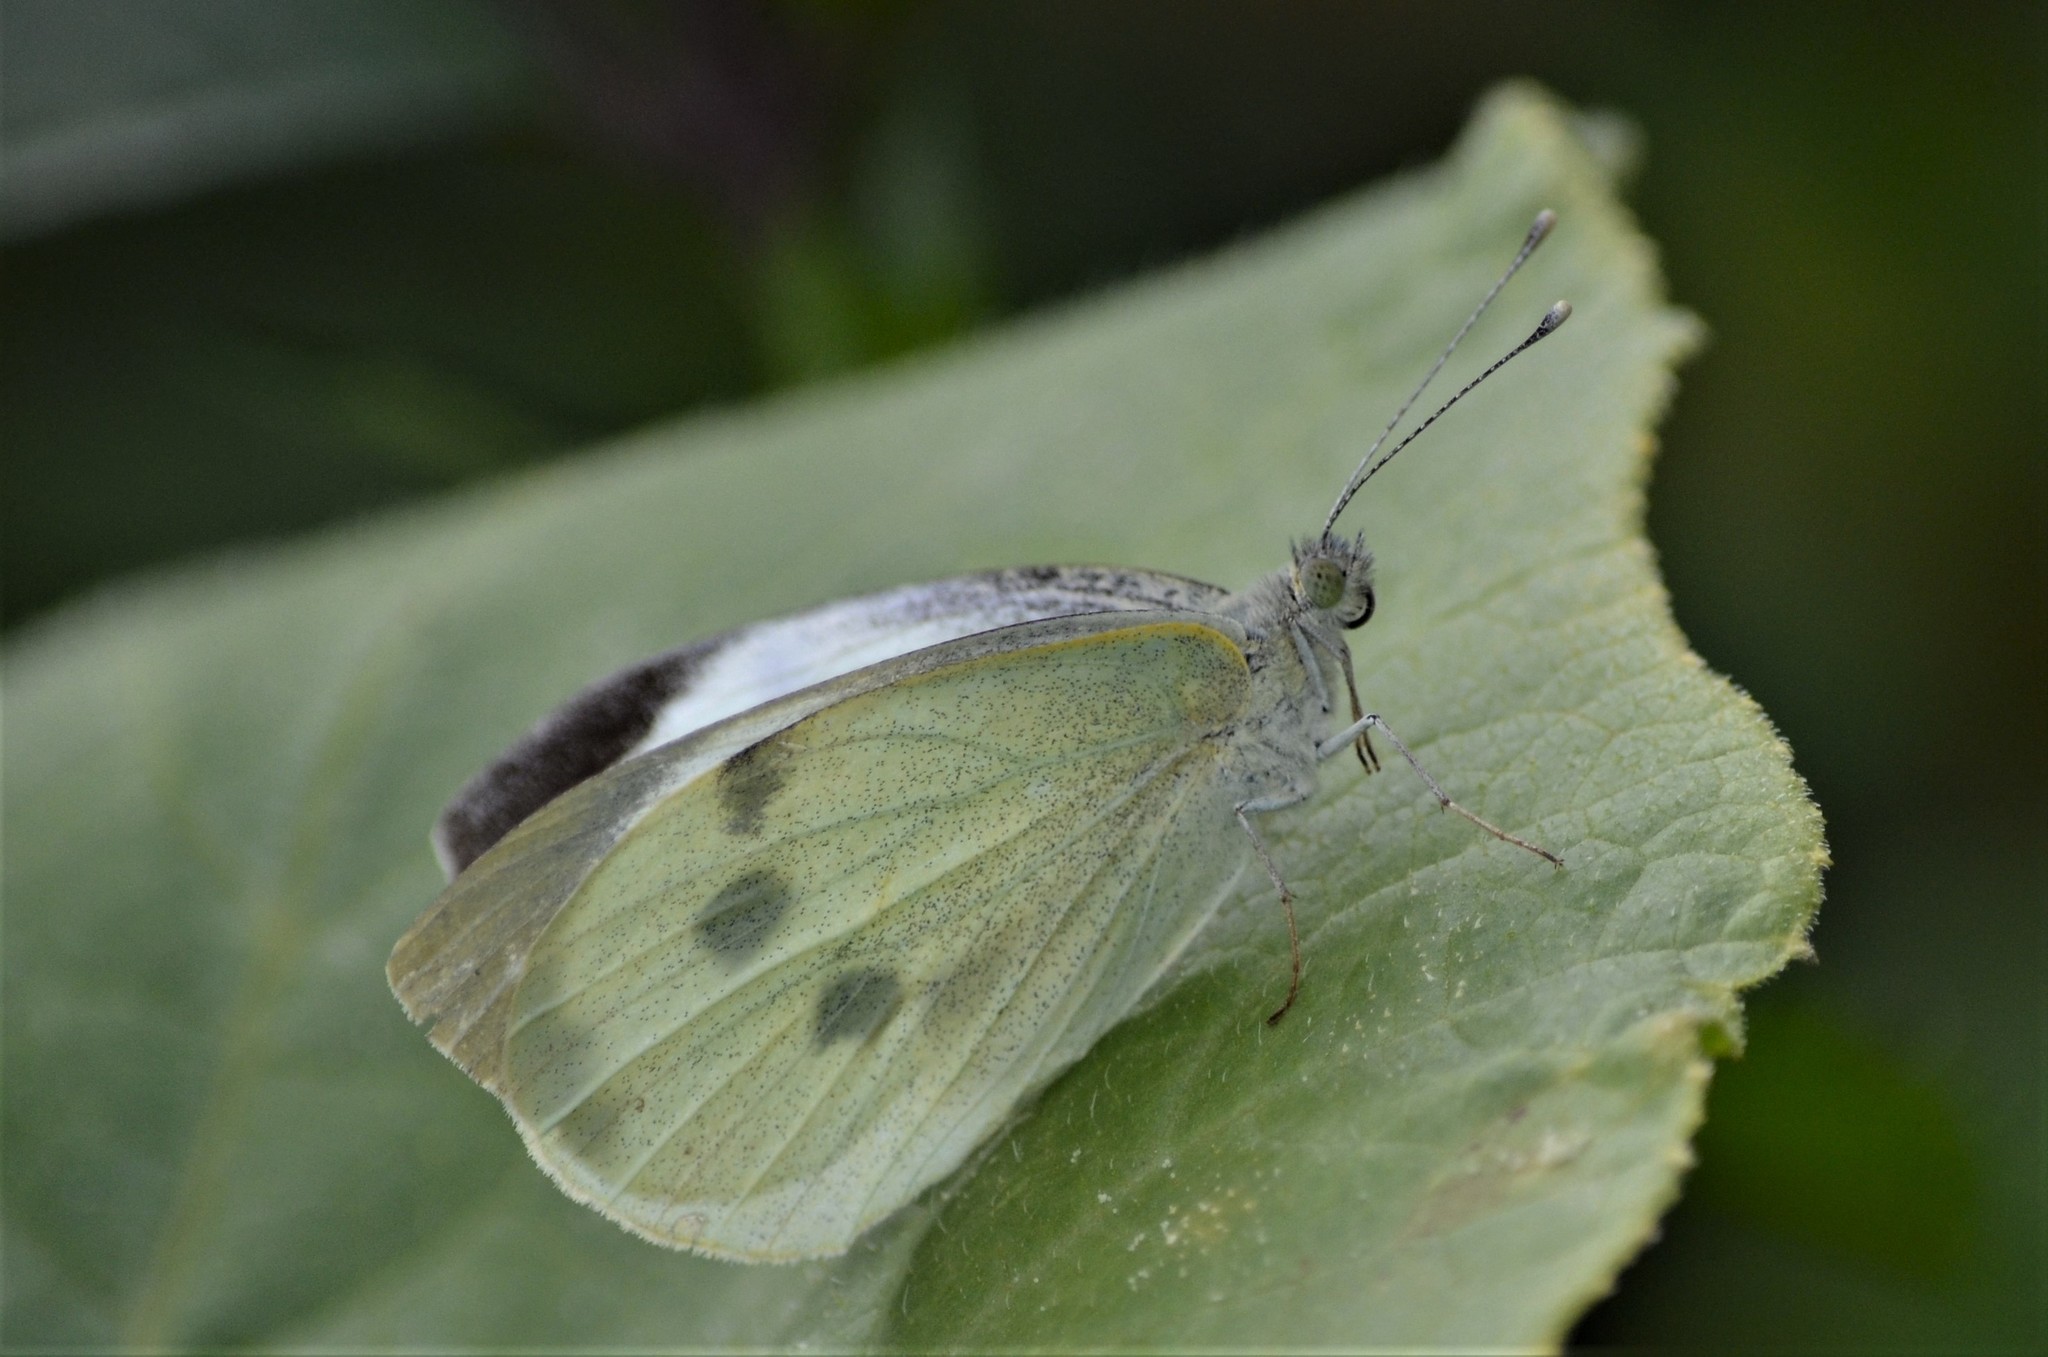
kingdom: Animalia
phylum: Arthropoda
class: Insecta
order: Lepidoptera
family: Pieridae
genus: Pieris
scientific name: Pieris brassicae
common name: Large white
